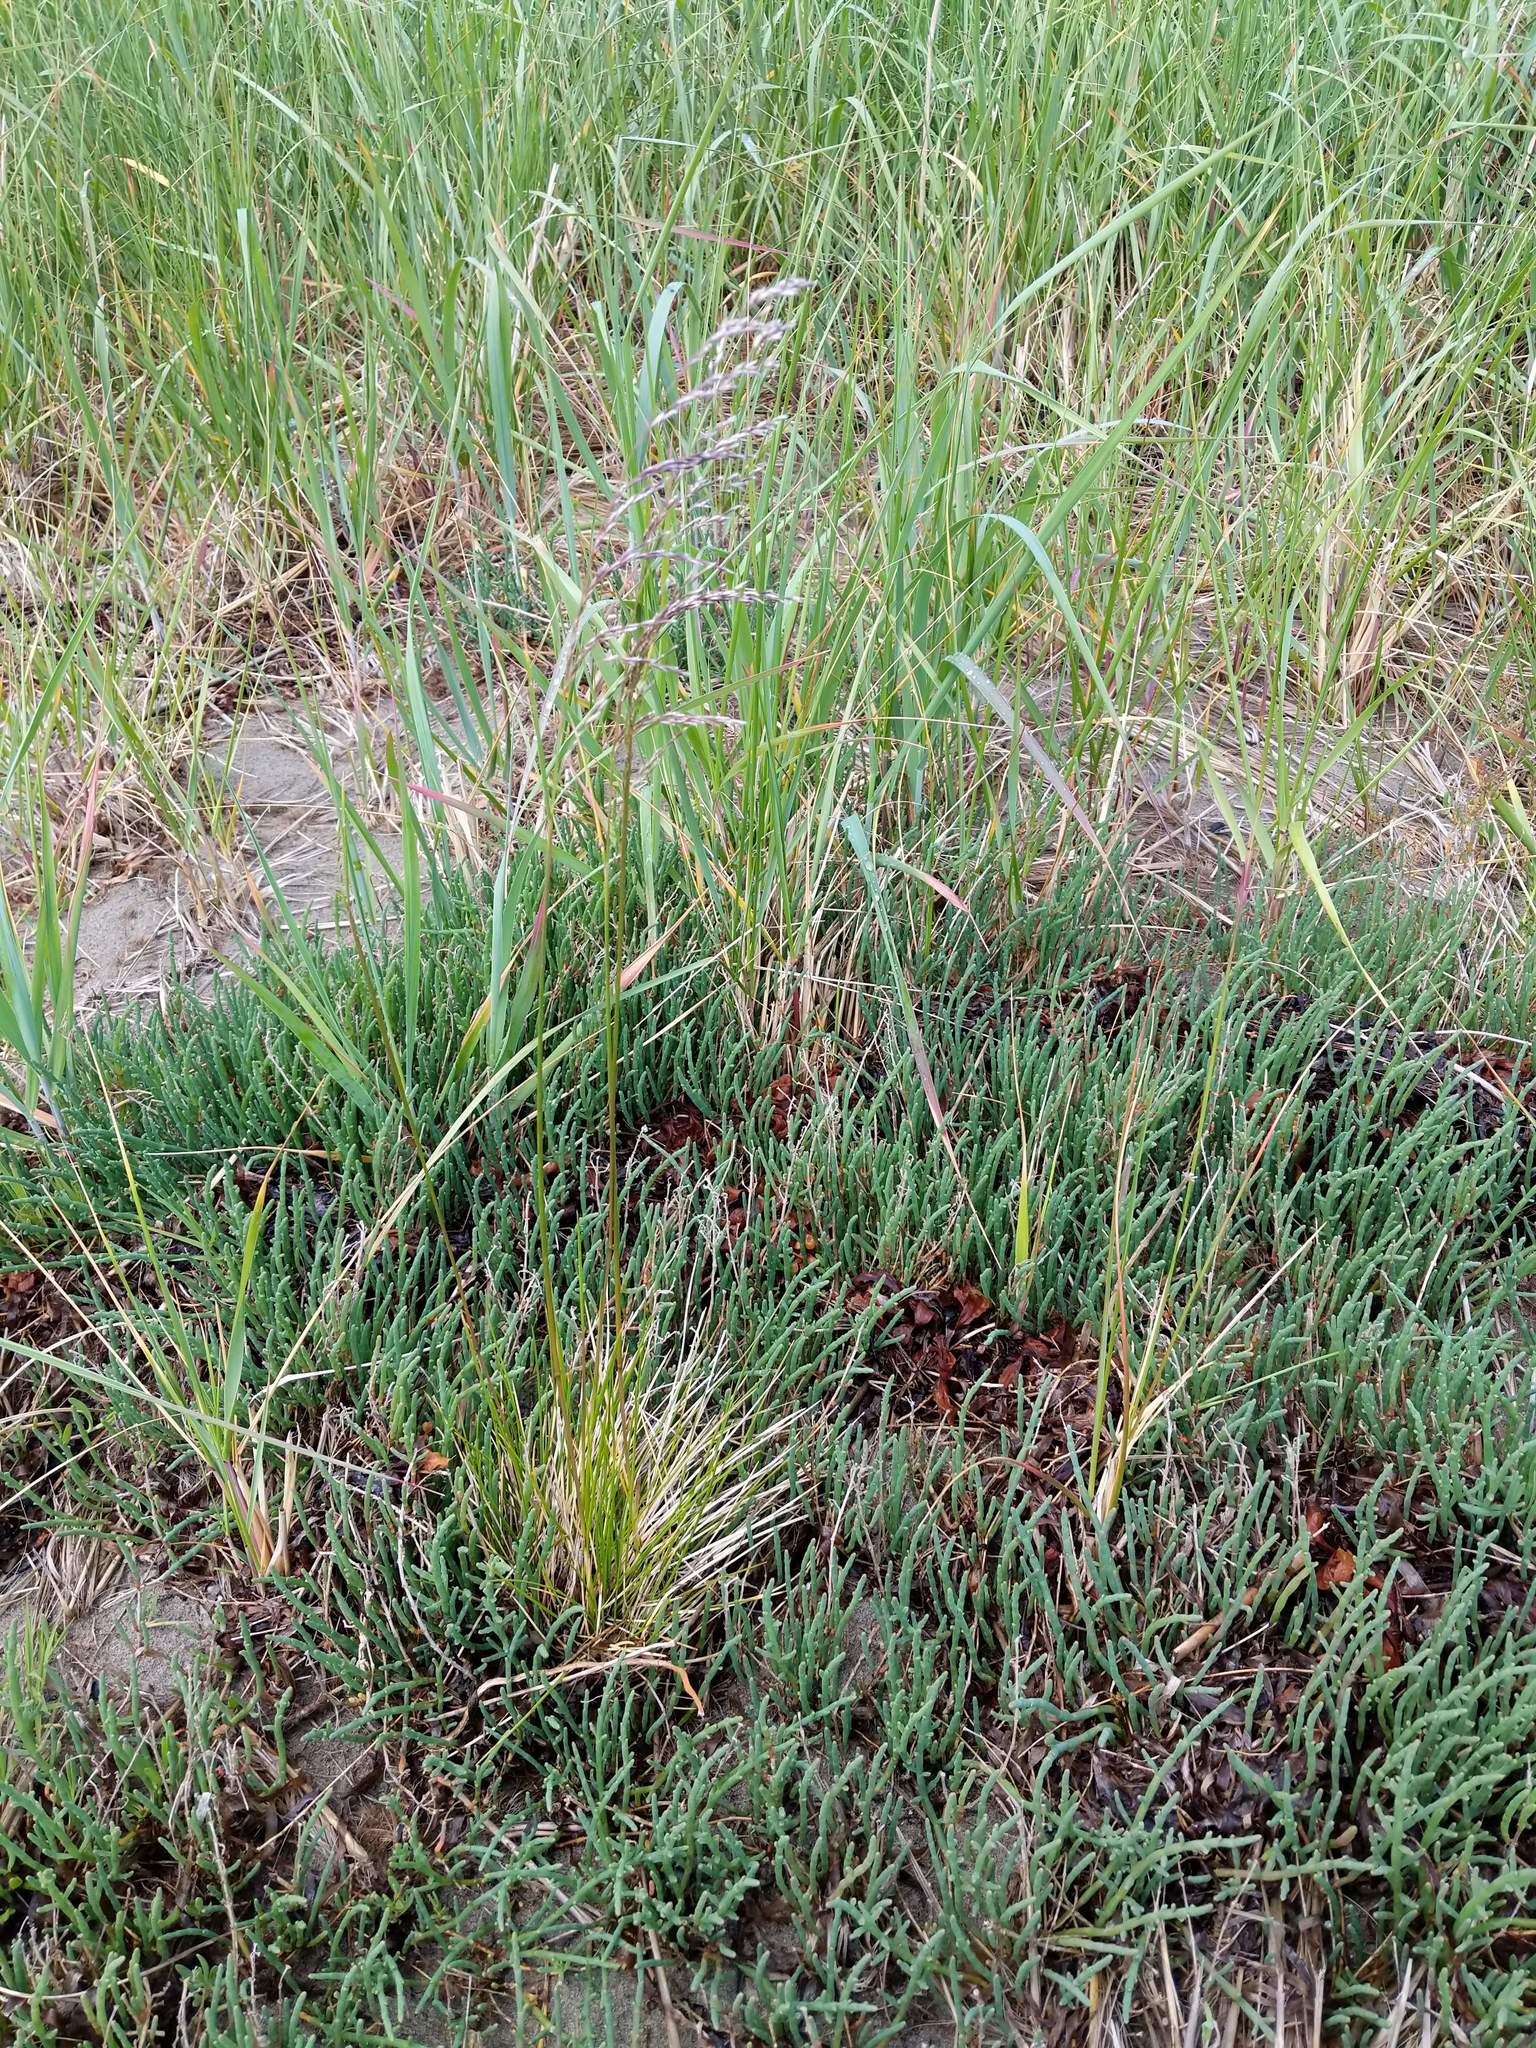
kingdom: Plantae
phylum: Tracheophyta
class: Liliopsida
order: Poales
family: Poaceae
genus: Deschampsia
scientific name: Deschampsia cespitosa
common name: Tufted hair-grass
